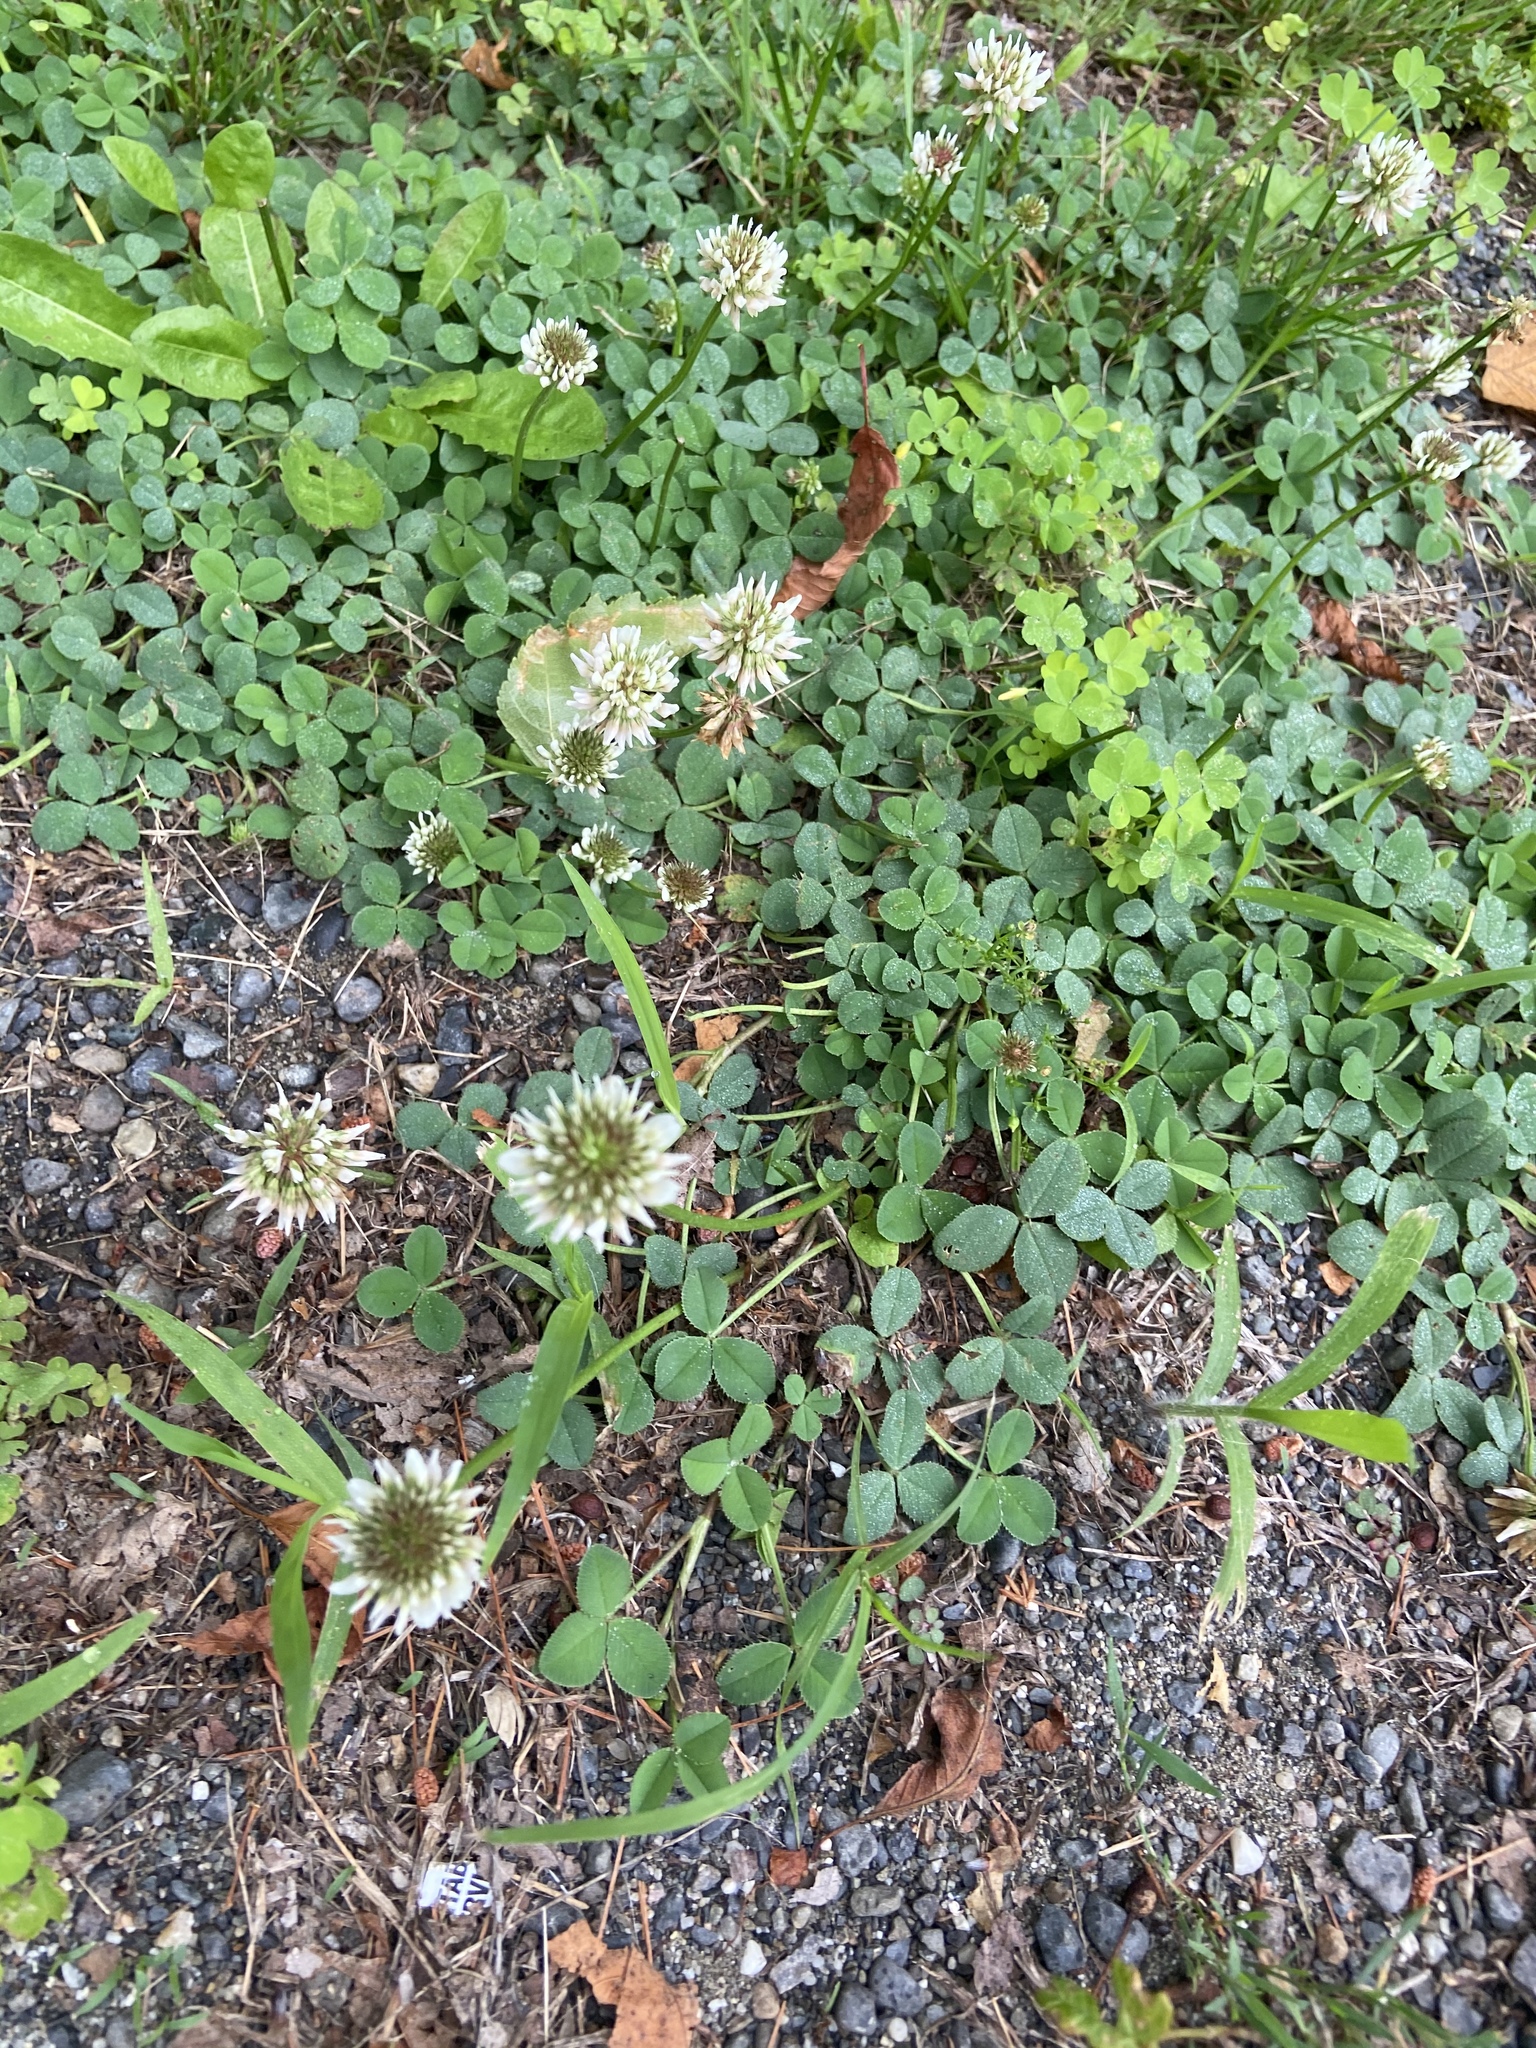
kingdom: Plantae
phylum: Tracheophyta
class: Magnoliopsida
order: Fabales
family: Fabaceae
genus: Trifolium
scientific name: Trifolium repens
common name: White clover
